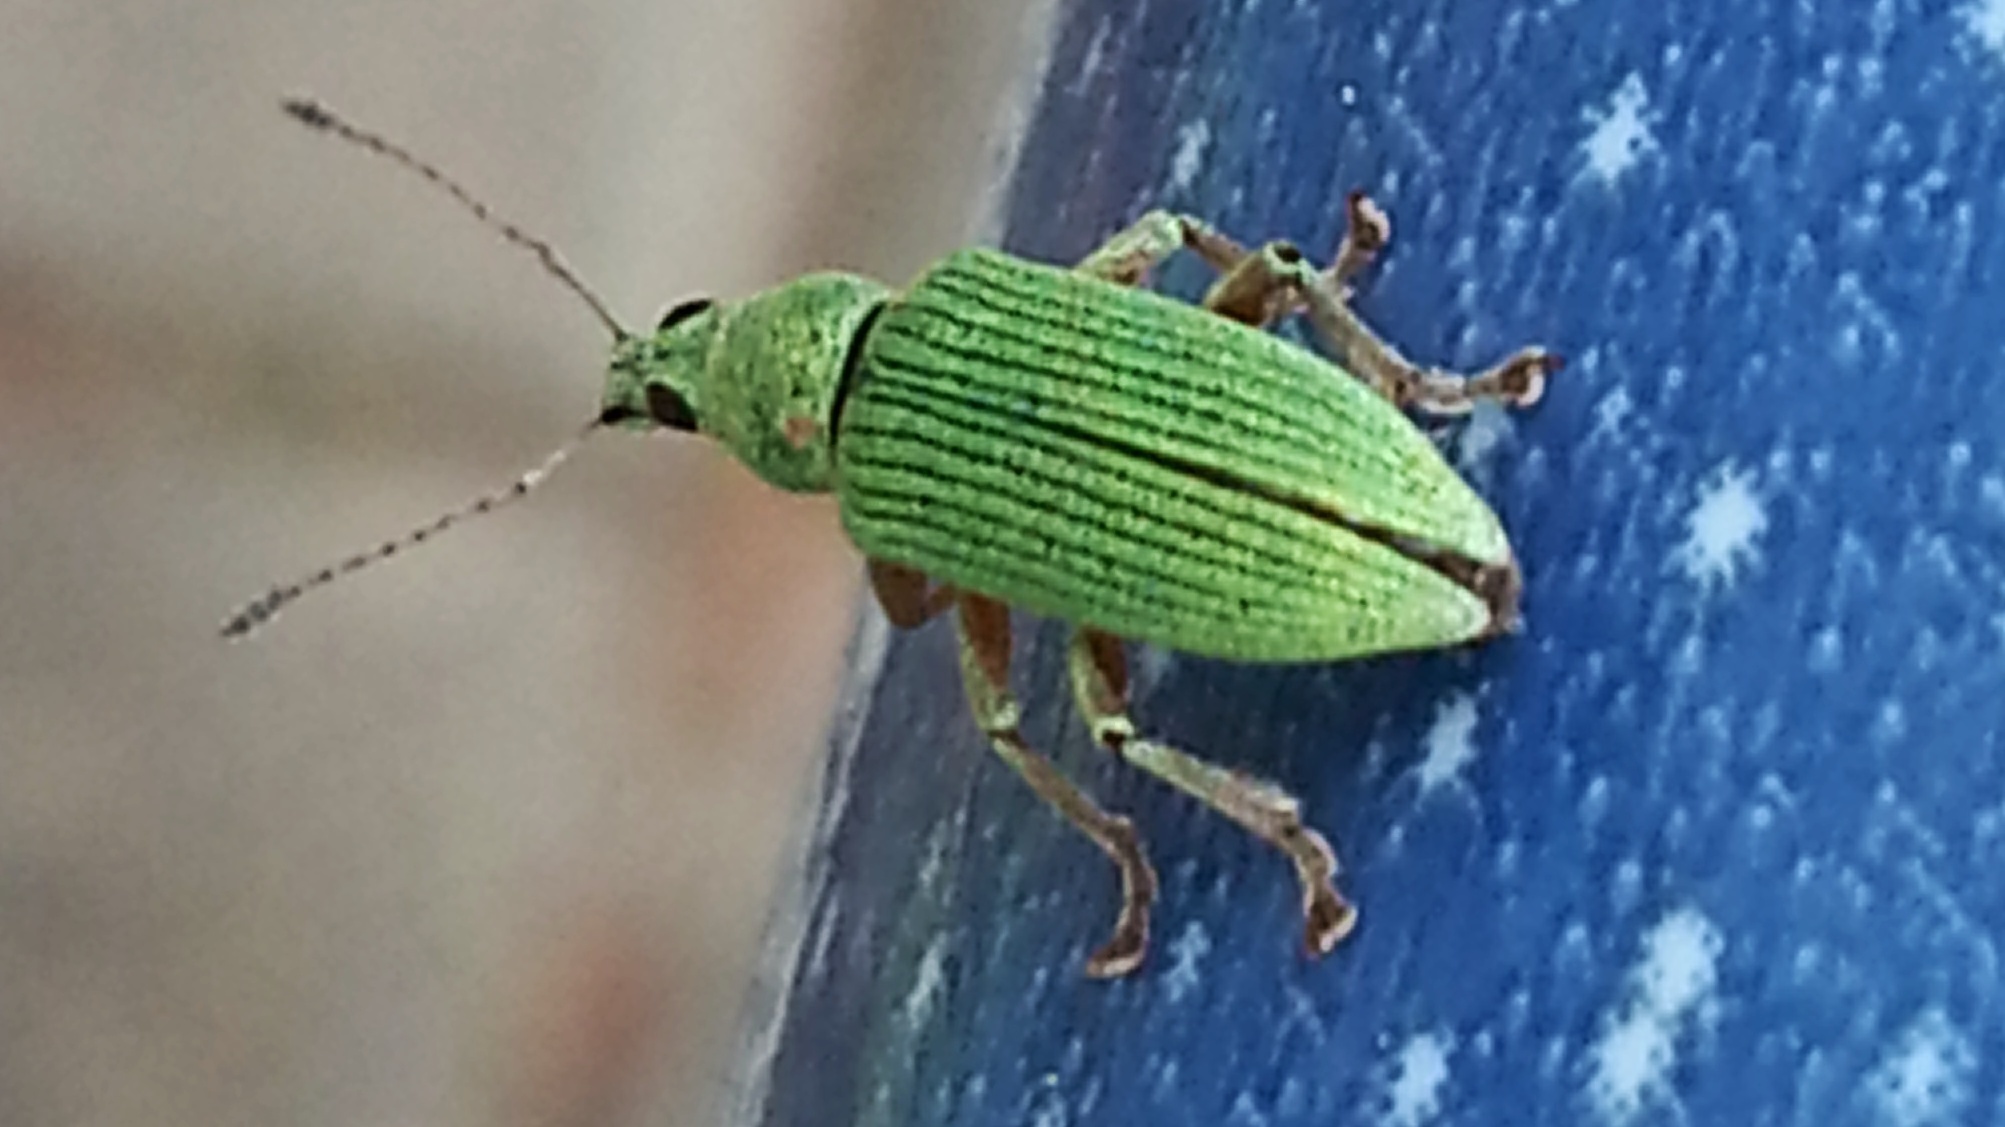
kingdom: Animalia
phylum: Arthropoda
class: Insecta
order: Coleoptera
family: Curculionidae
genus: Polydrusus
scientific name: Polydrusus formosus
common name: Weevil
